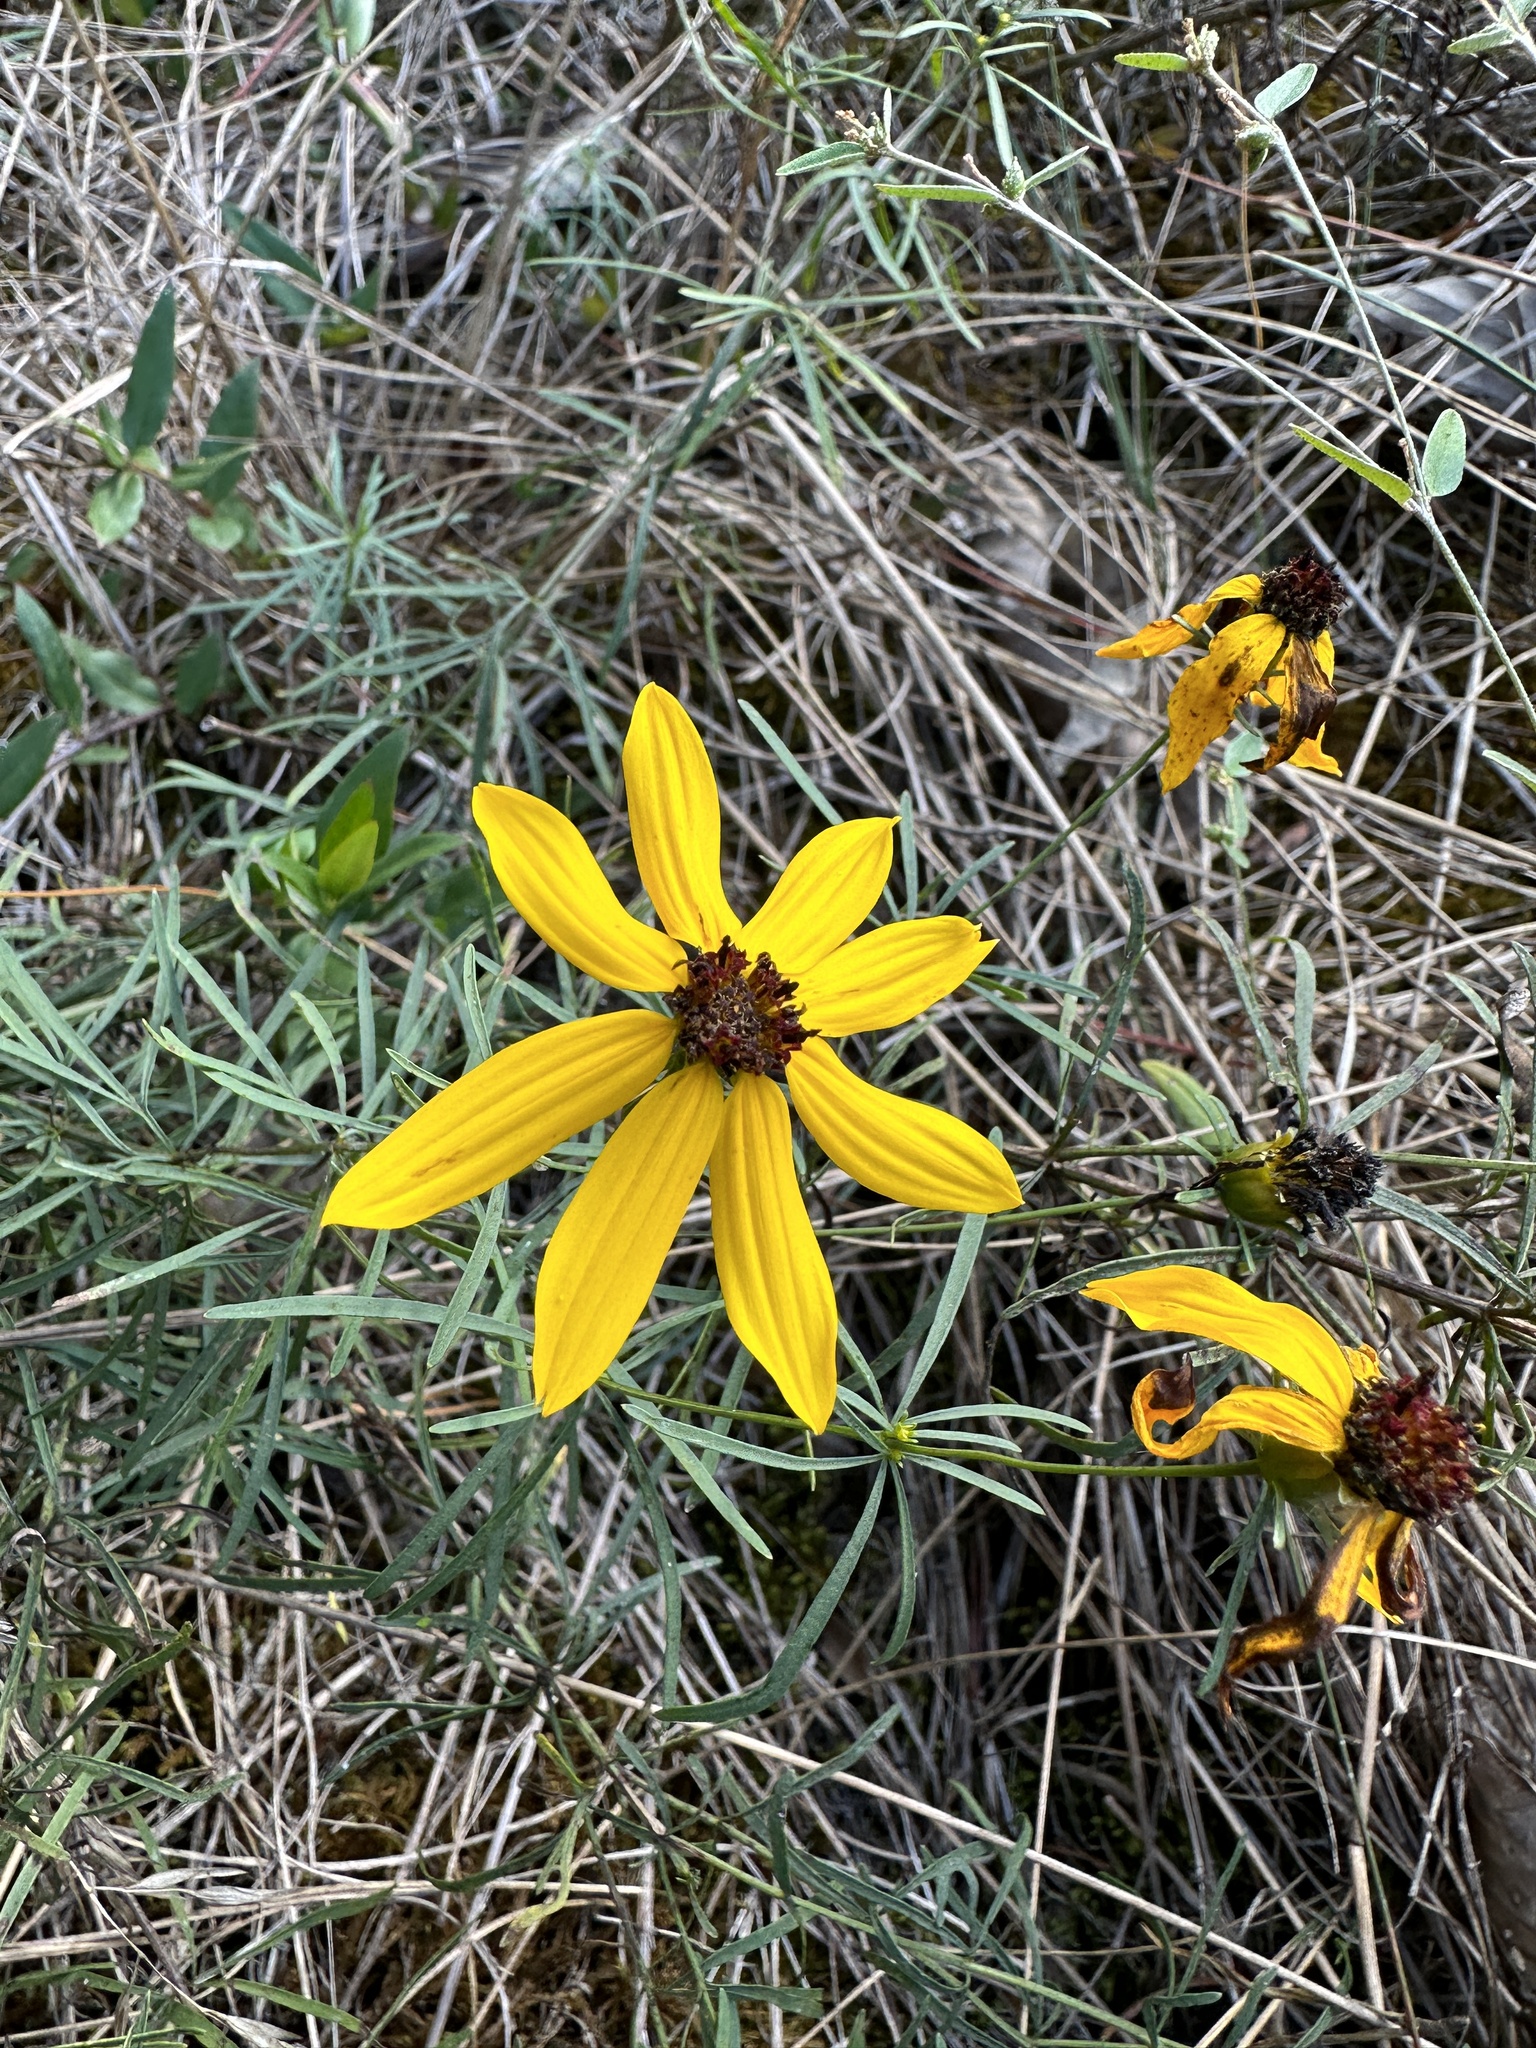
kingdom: Plantae
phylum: Tracheophyta
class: Magnoliopsida
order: Asterales
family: Asteraceae
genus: Coreopsis
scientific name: Coreopsis pulchra
